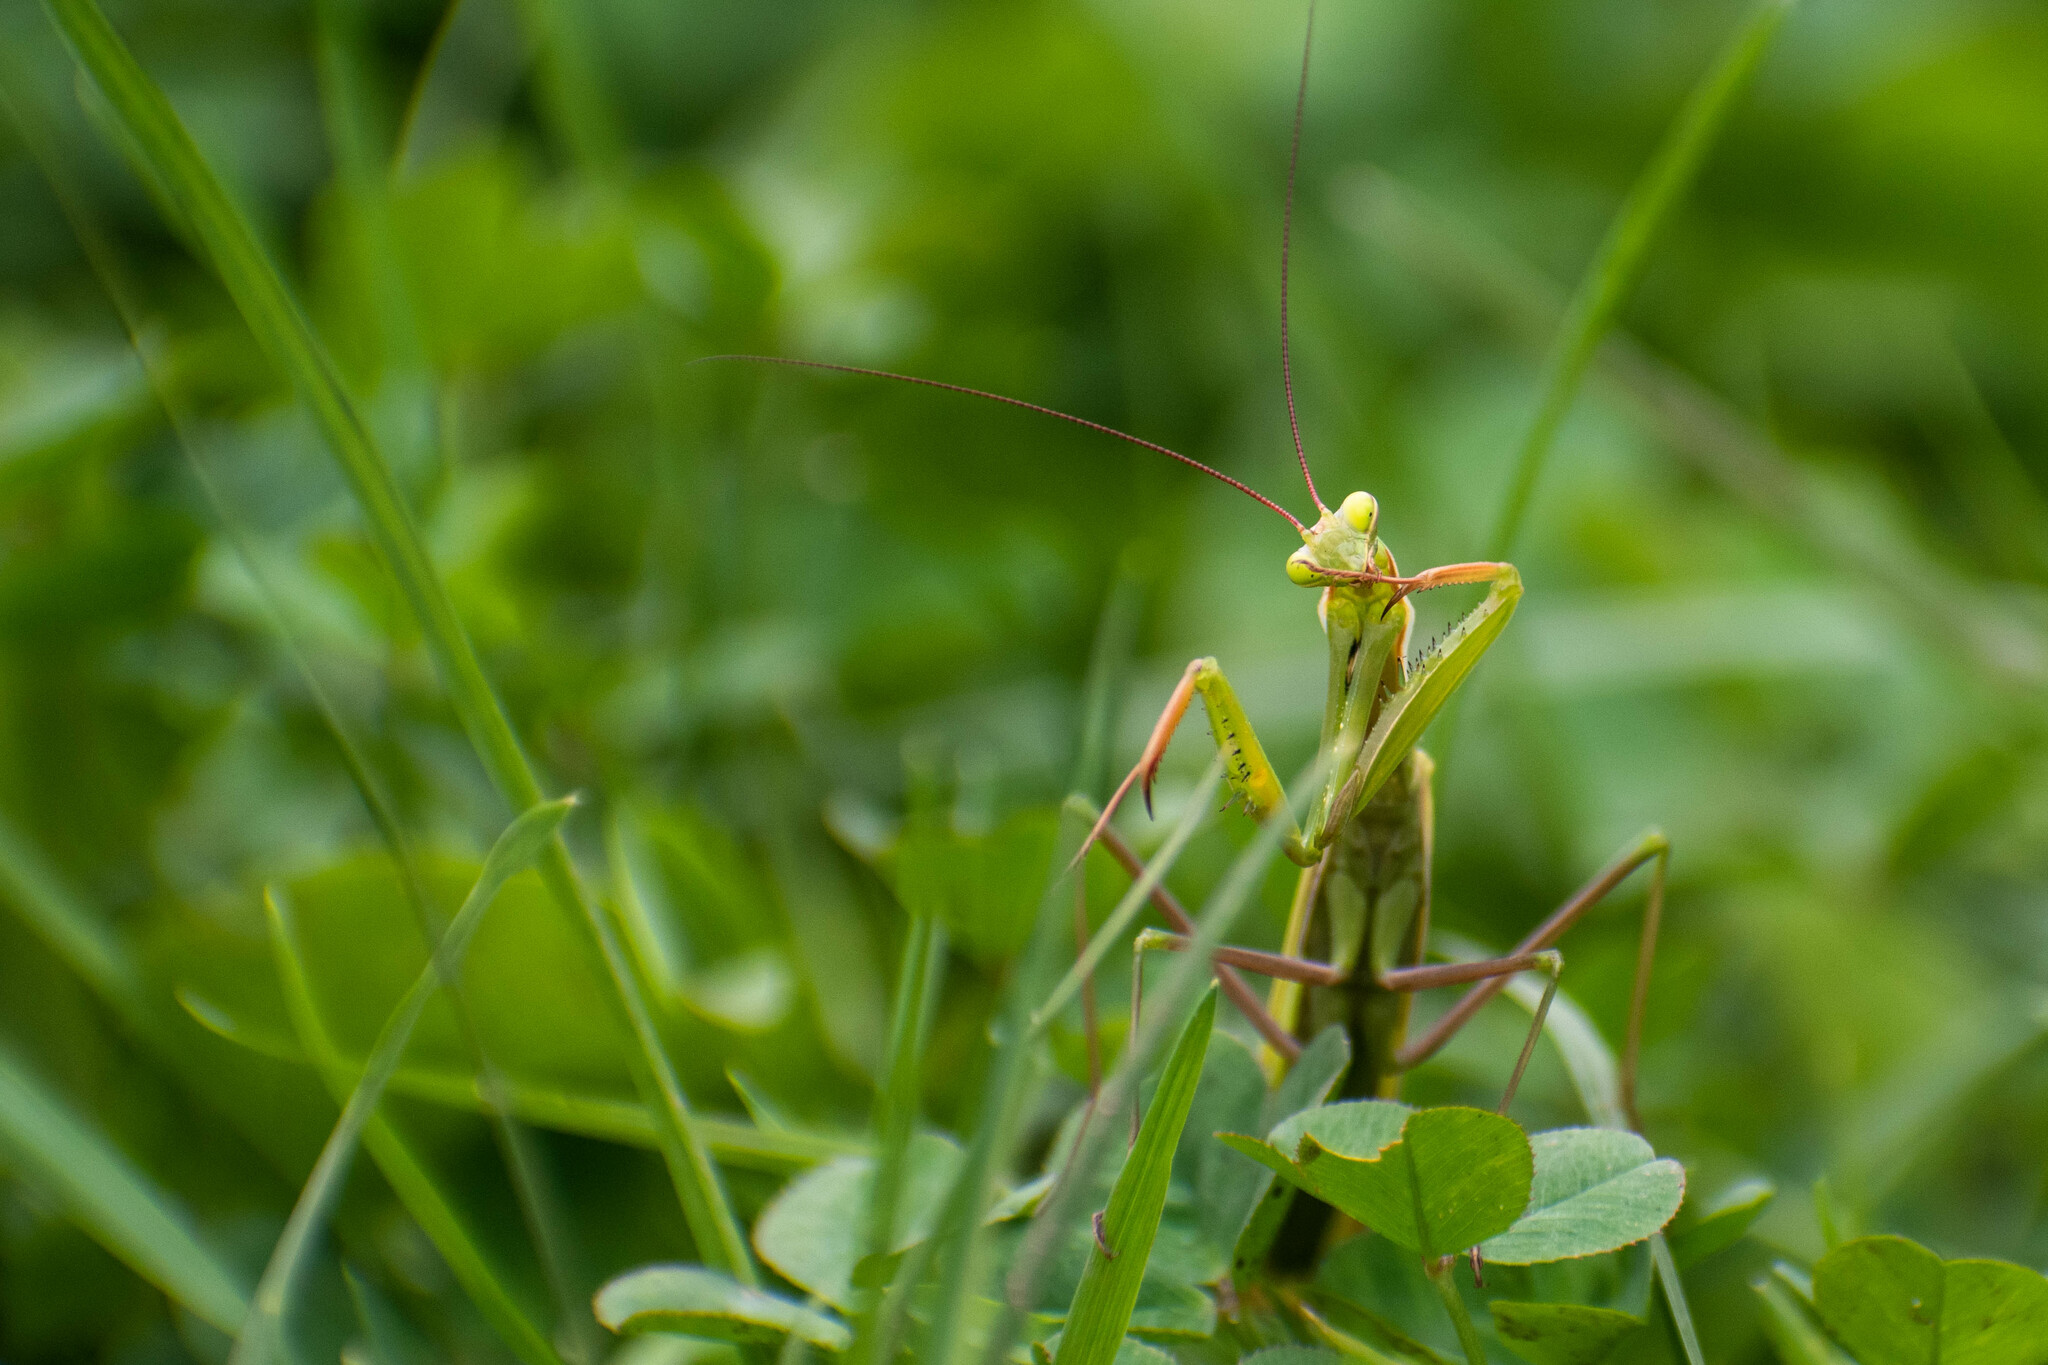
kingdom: Animalia
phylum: Arthropoda
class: Insecta
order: Mantodea
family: Mantidae
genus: Mantis
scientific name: Mantis religiosa
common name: Praying mantis
